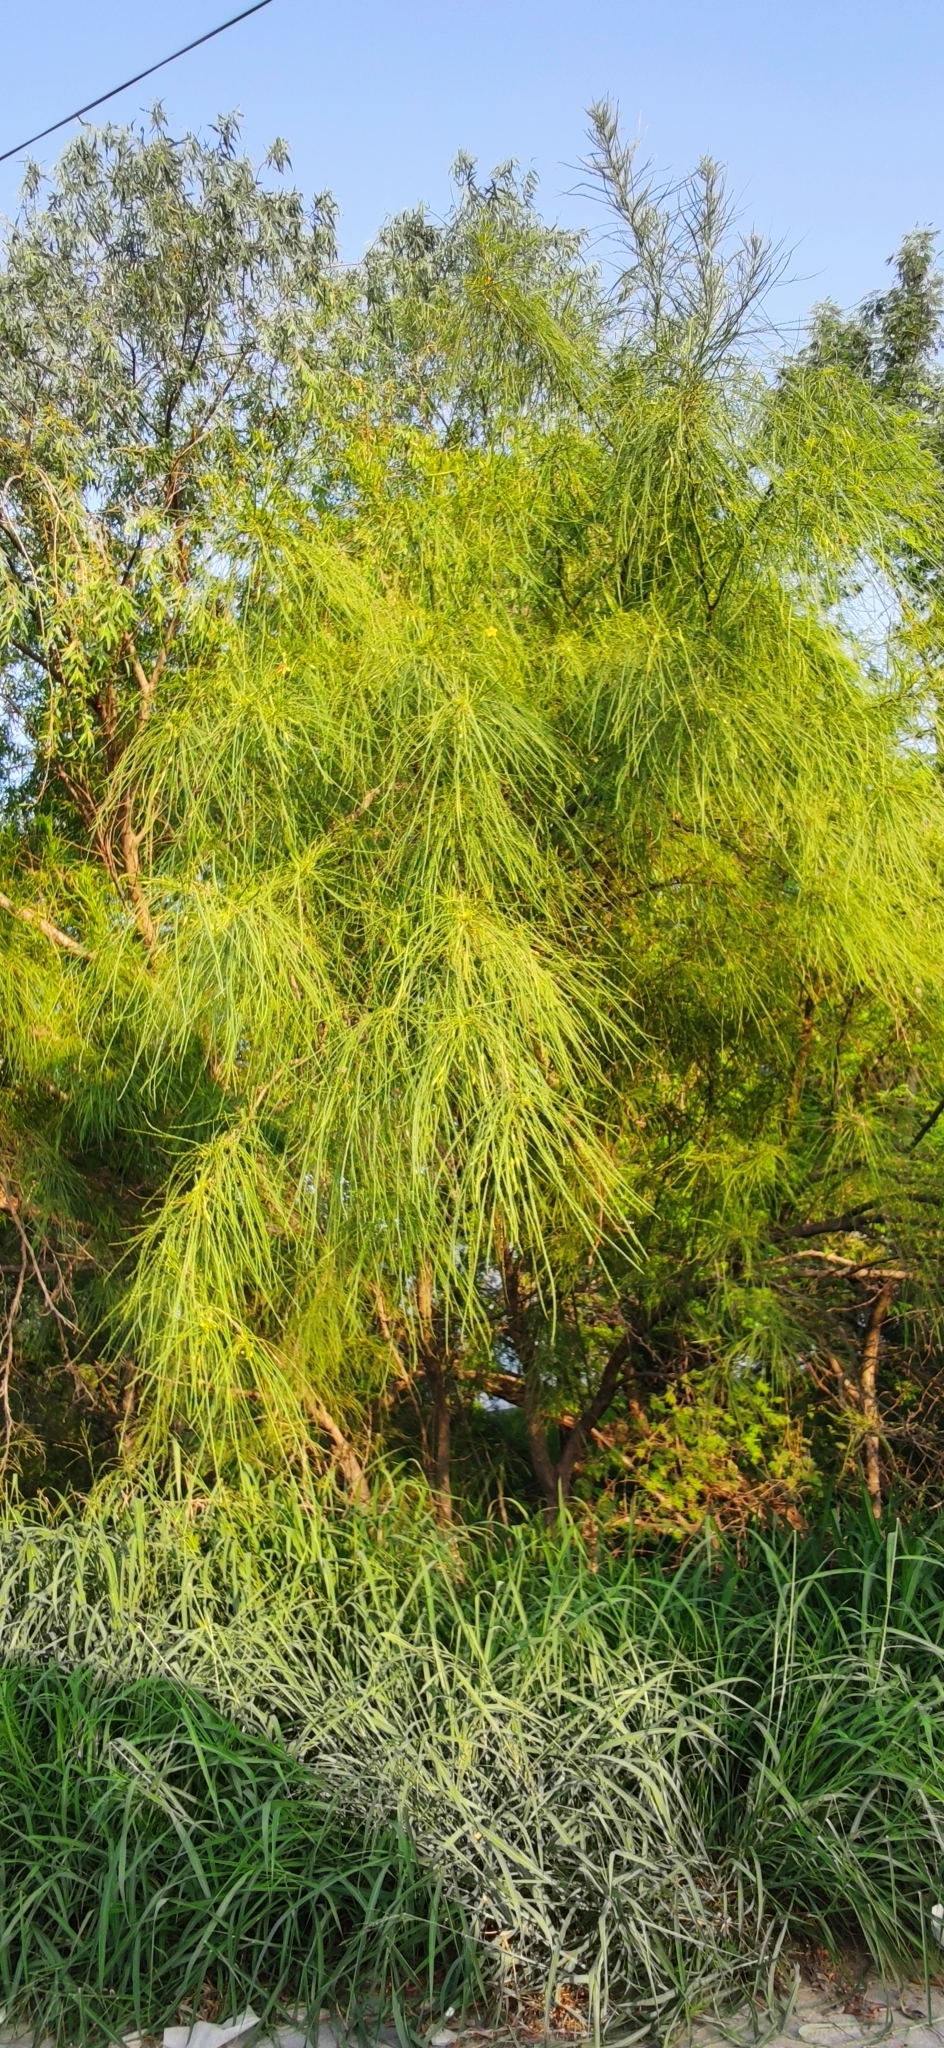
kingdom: Plantae
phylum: Tracheophyta
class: Magnoliopsida
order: Fabales
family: Fabaceae
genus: Parkinsonia
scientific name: Parkinsonia aculeata
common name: Jerusalem thorn
